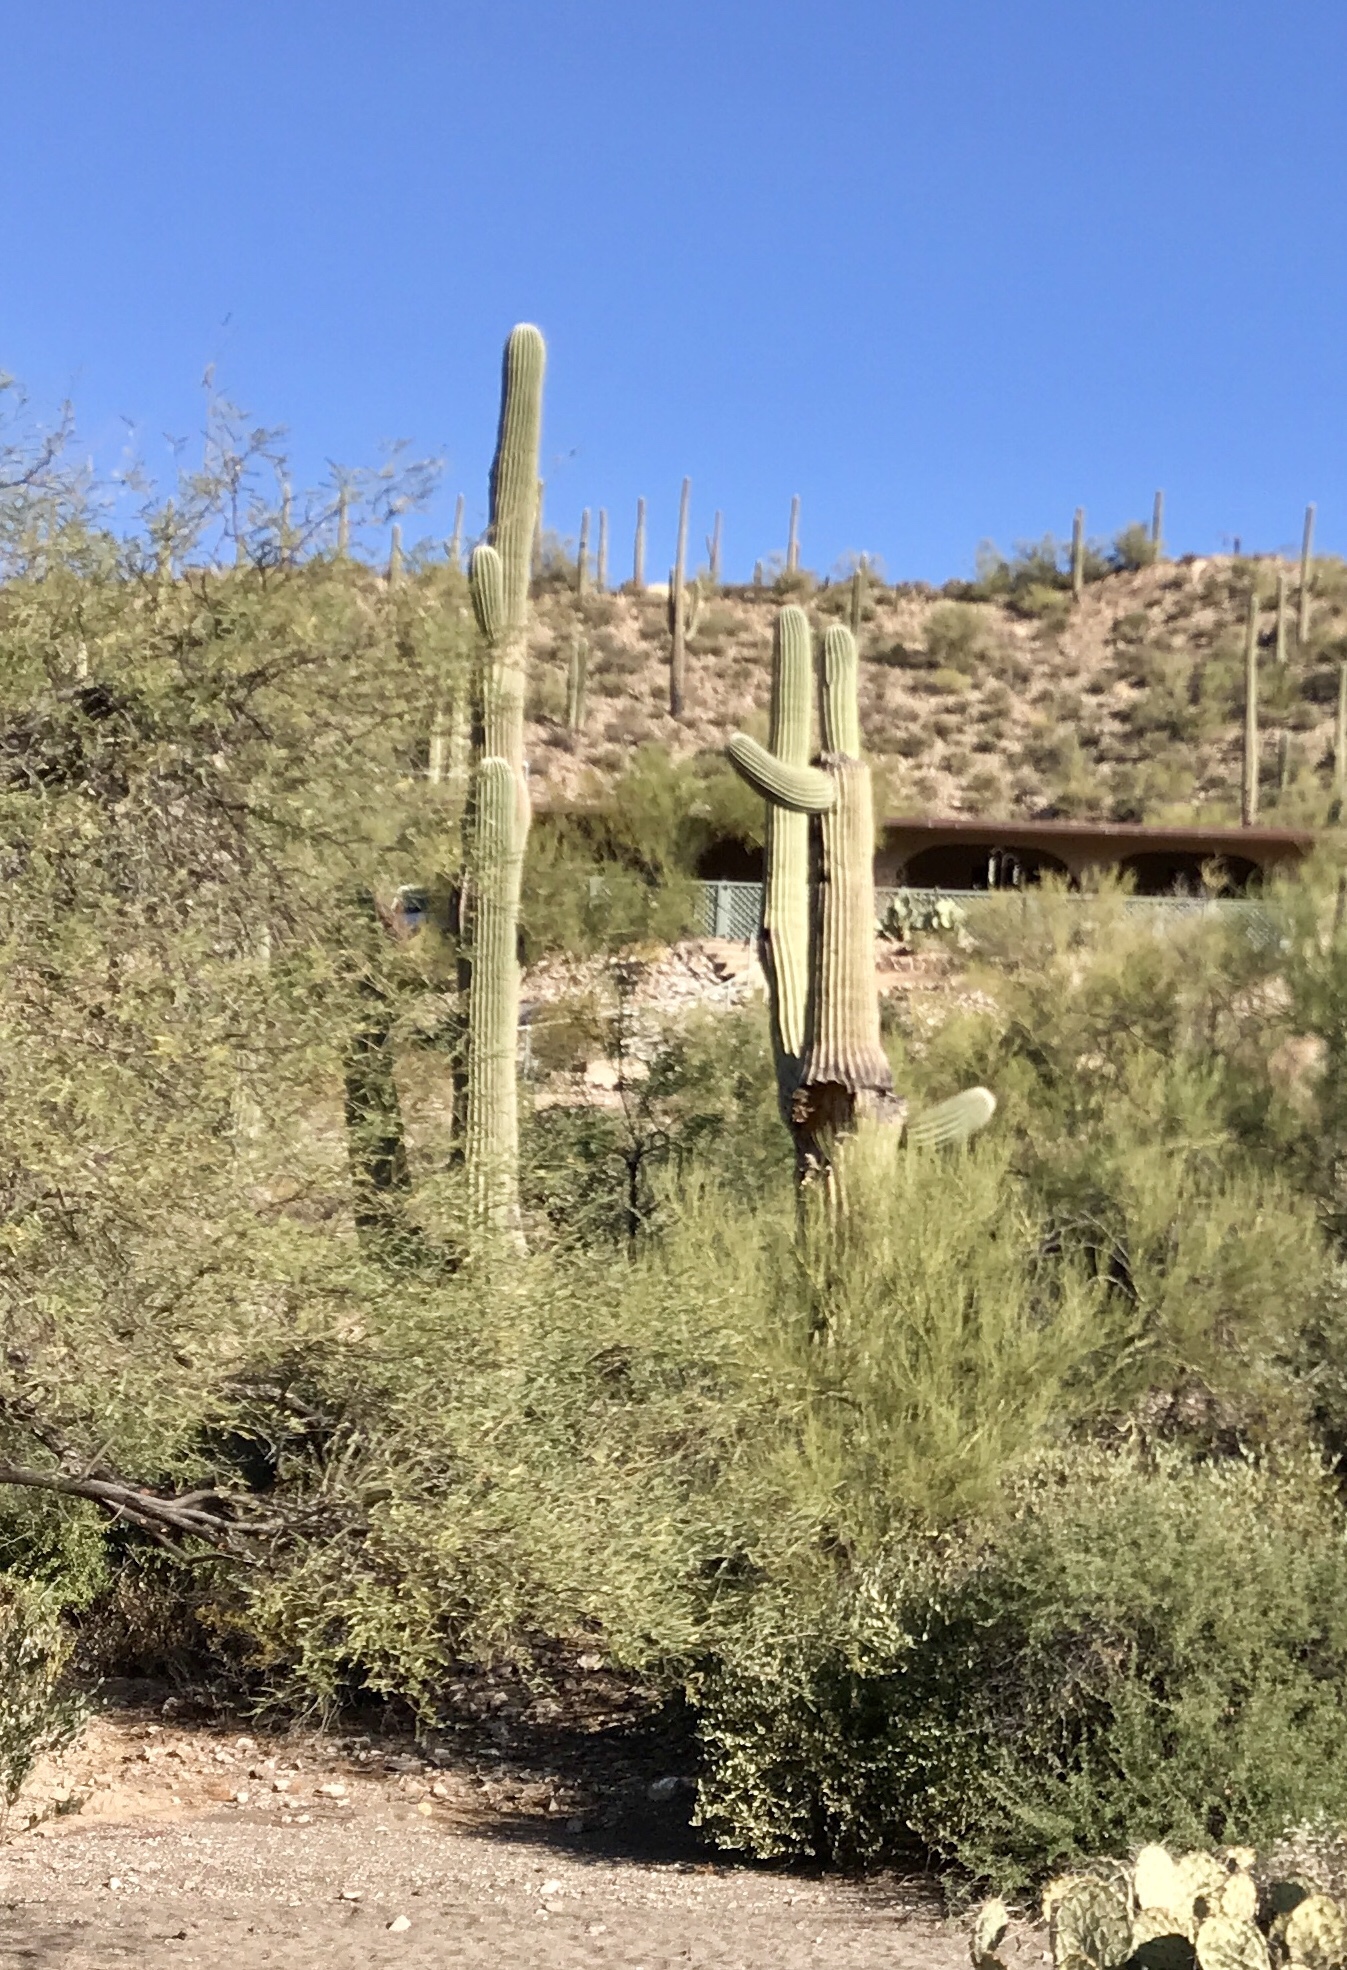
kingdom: Plantae
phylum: Tracheophyta
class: Magnoliopsida
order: Caryophyllales
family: Cactaceae
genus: Carnegiea
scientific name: Carnegiea gigantea
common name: Saguaro
